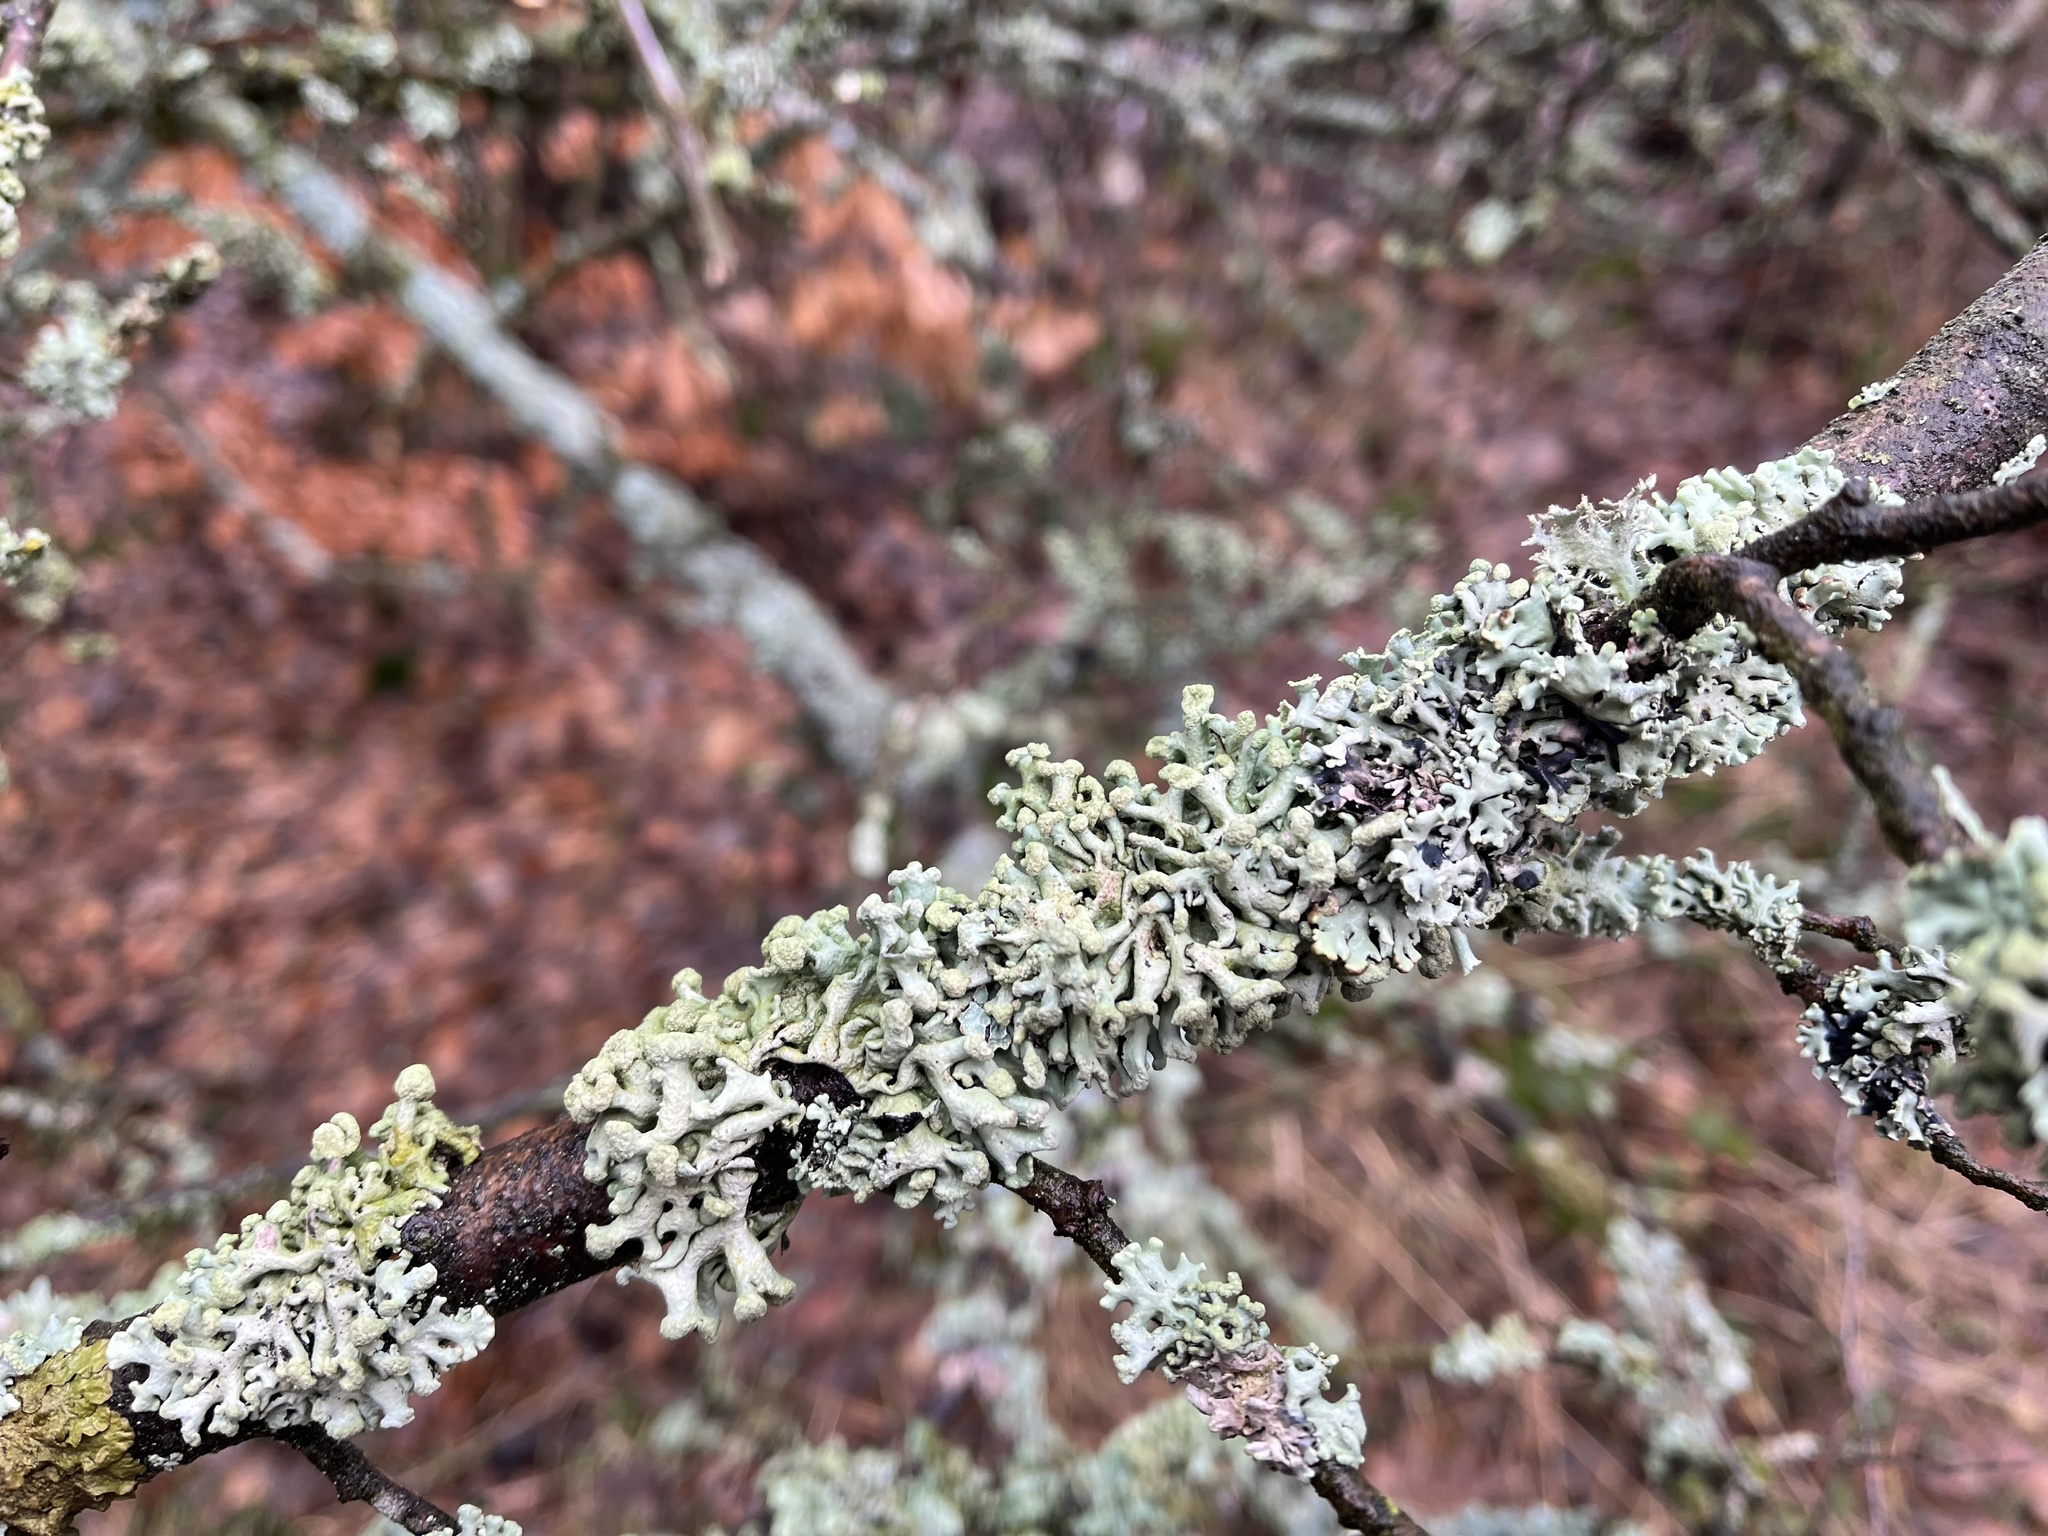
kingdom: Fungi
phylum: Ascomycota
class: Lecanoromycetes
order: Lecanorales
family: Parmeliaceae
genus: Hypogymnia
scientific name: Hypogymnia tubulosa
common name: Powder-headed tube lichen
